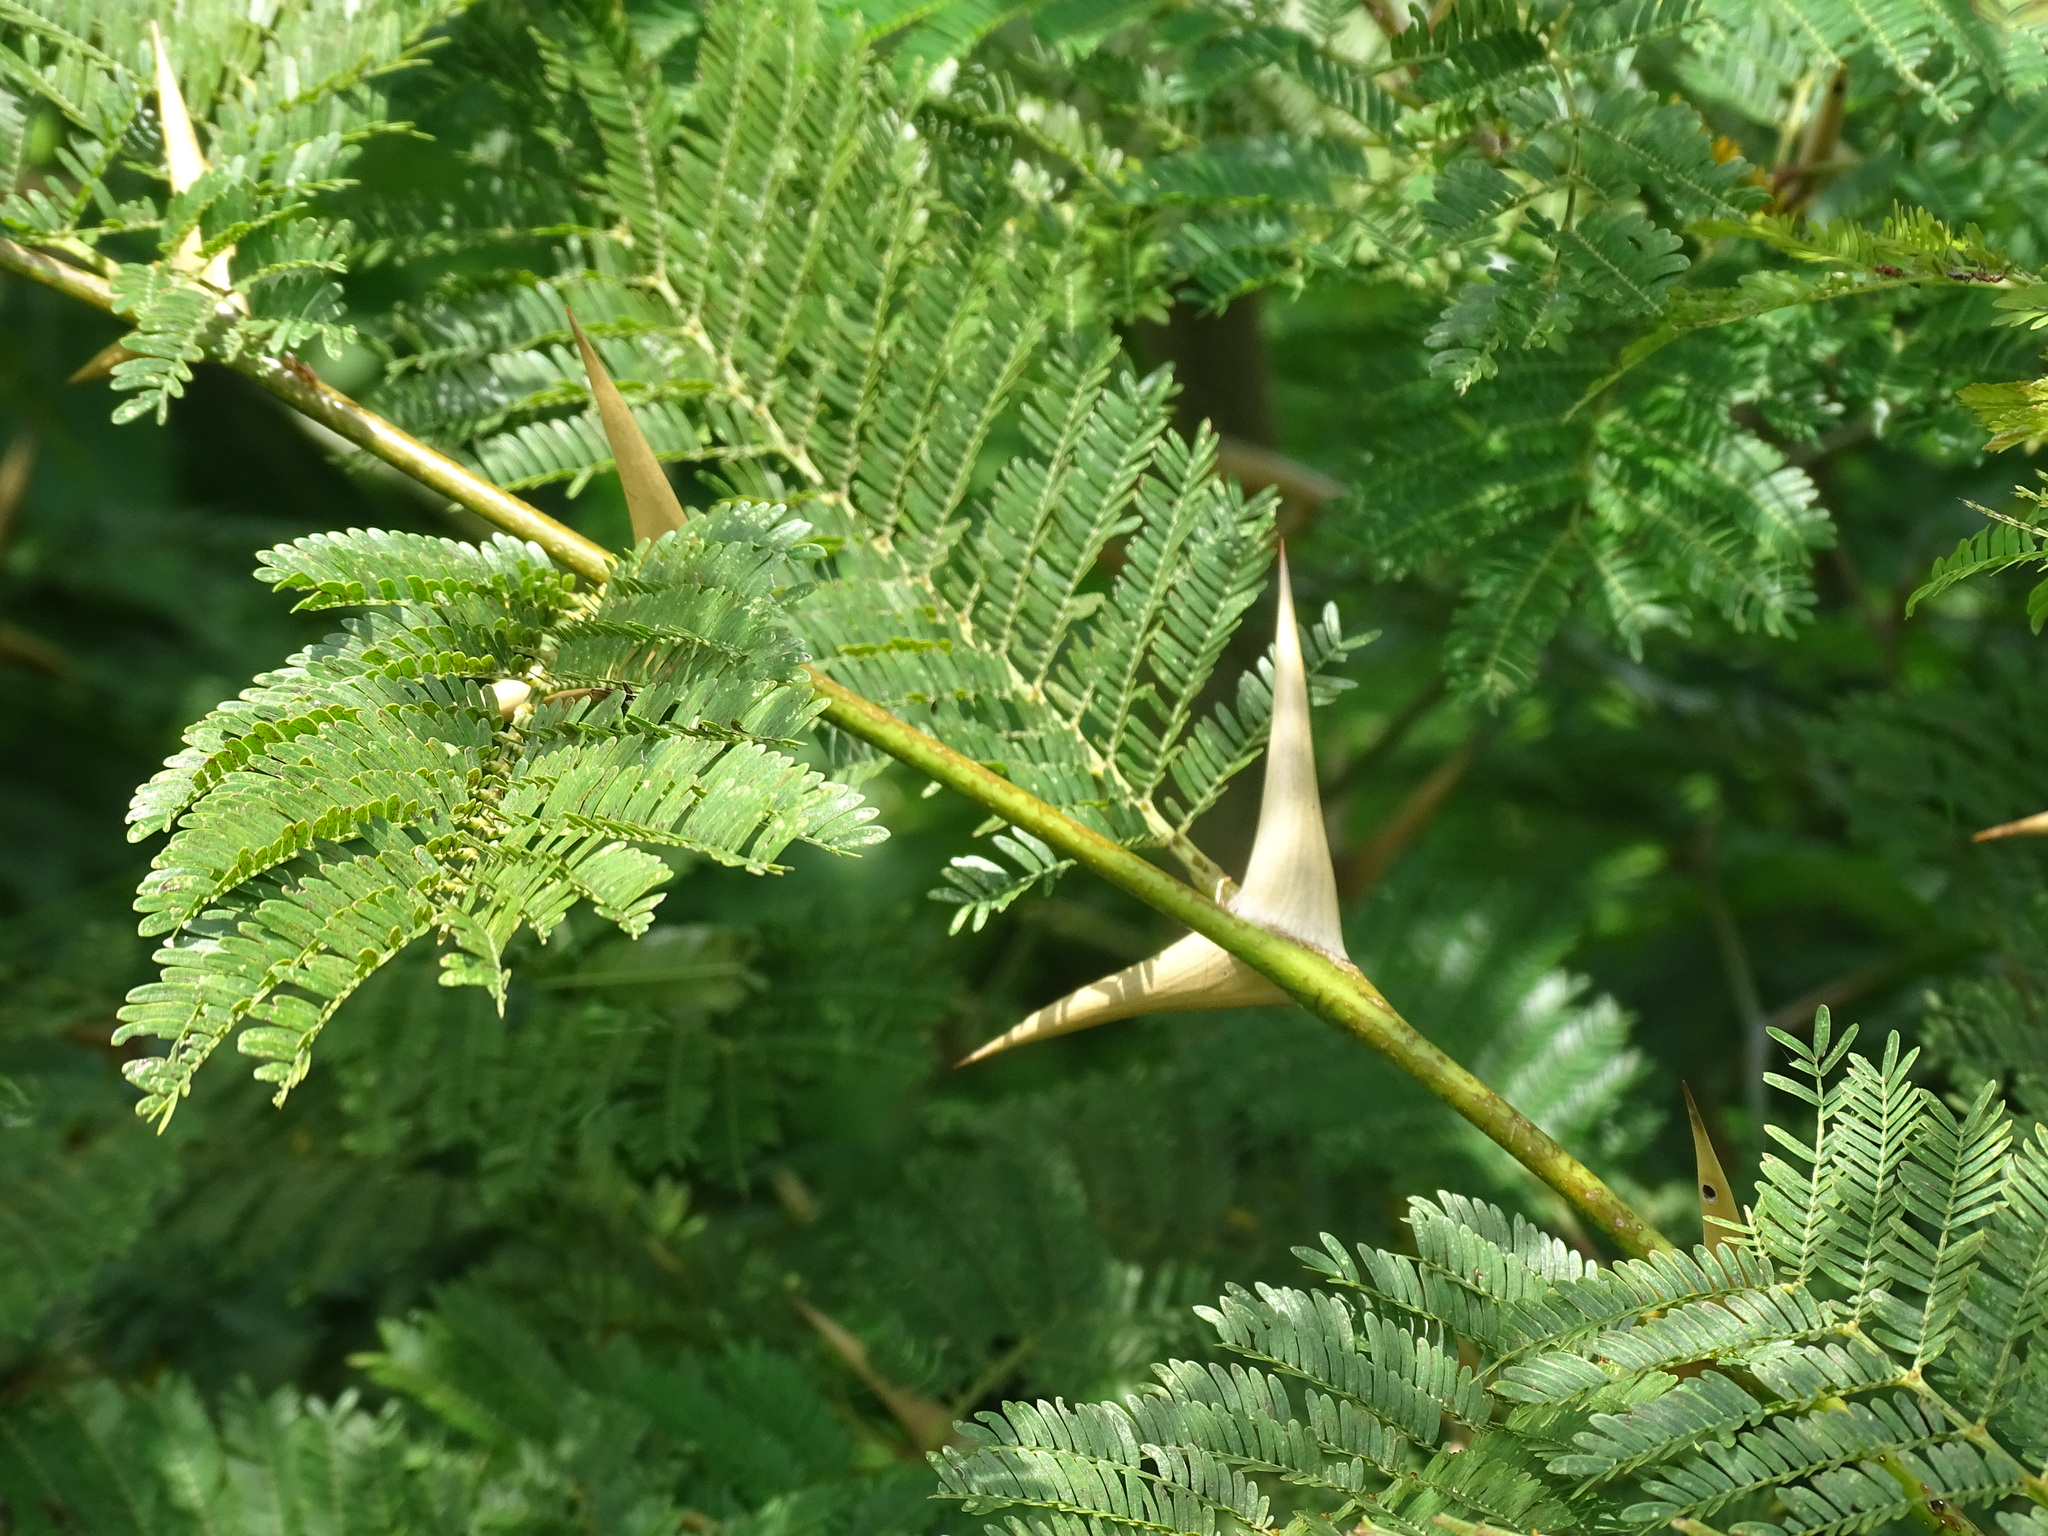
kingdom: Plantae
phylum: Tracheophyta
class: Magnoliopsida
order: Fabales
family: Fabaceae
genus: Vachellia
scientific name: Vachellia cornigera
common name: Bullhorn wattle
